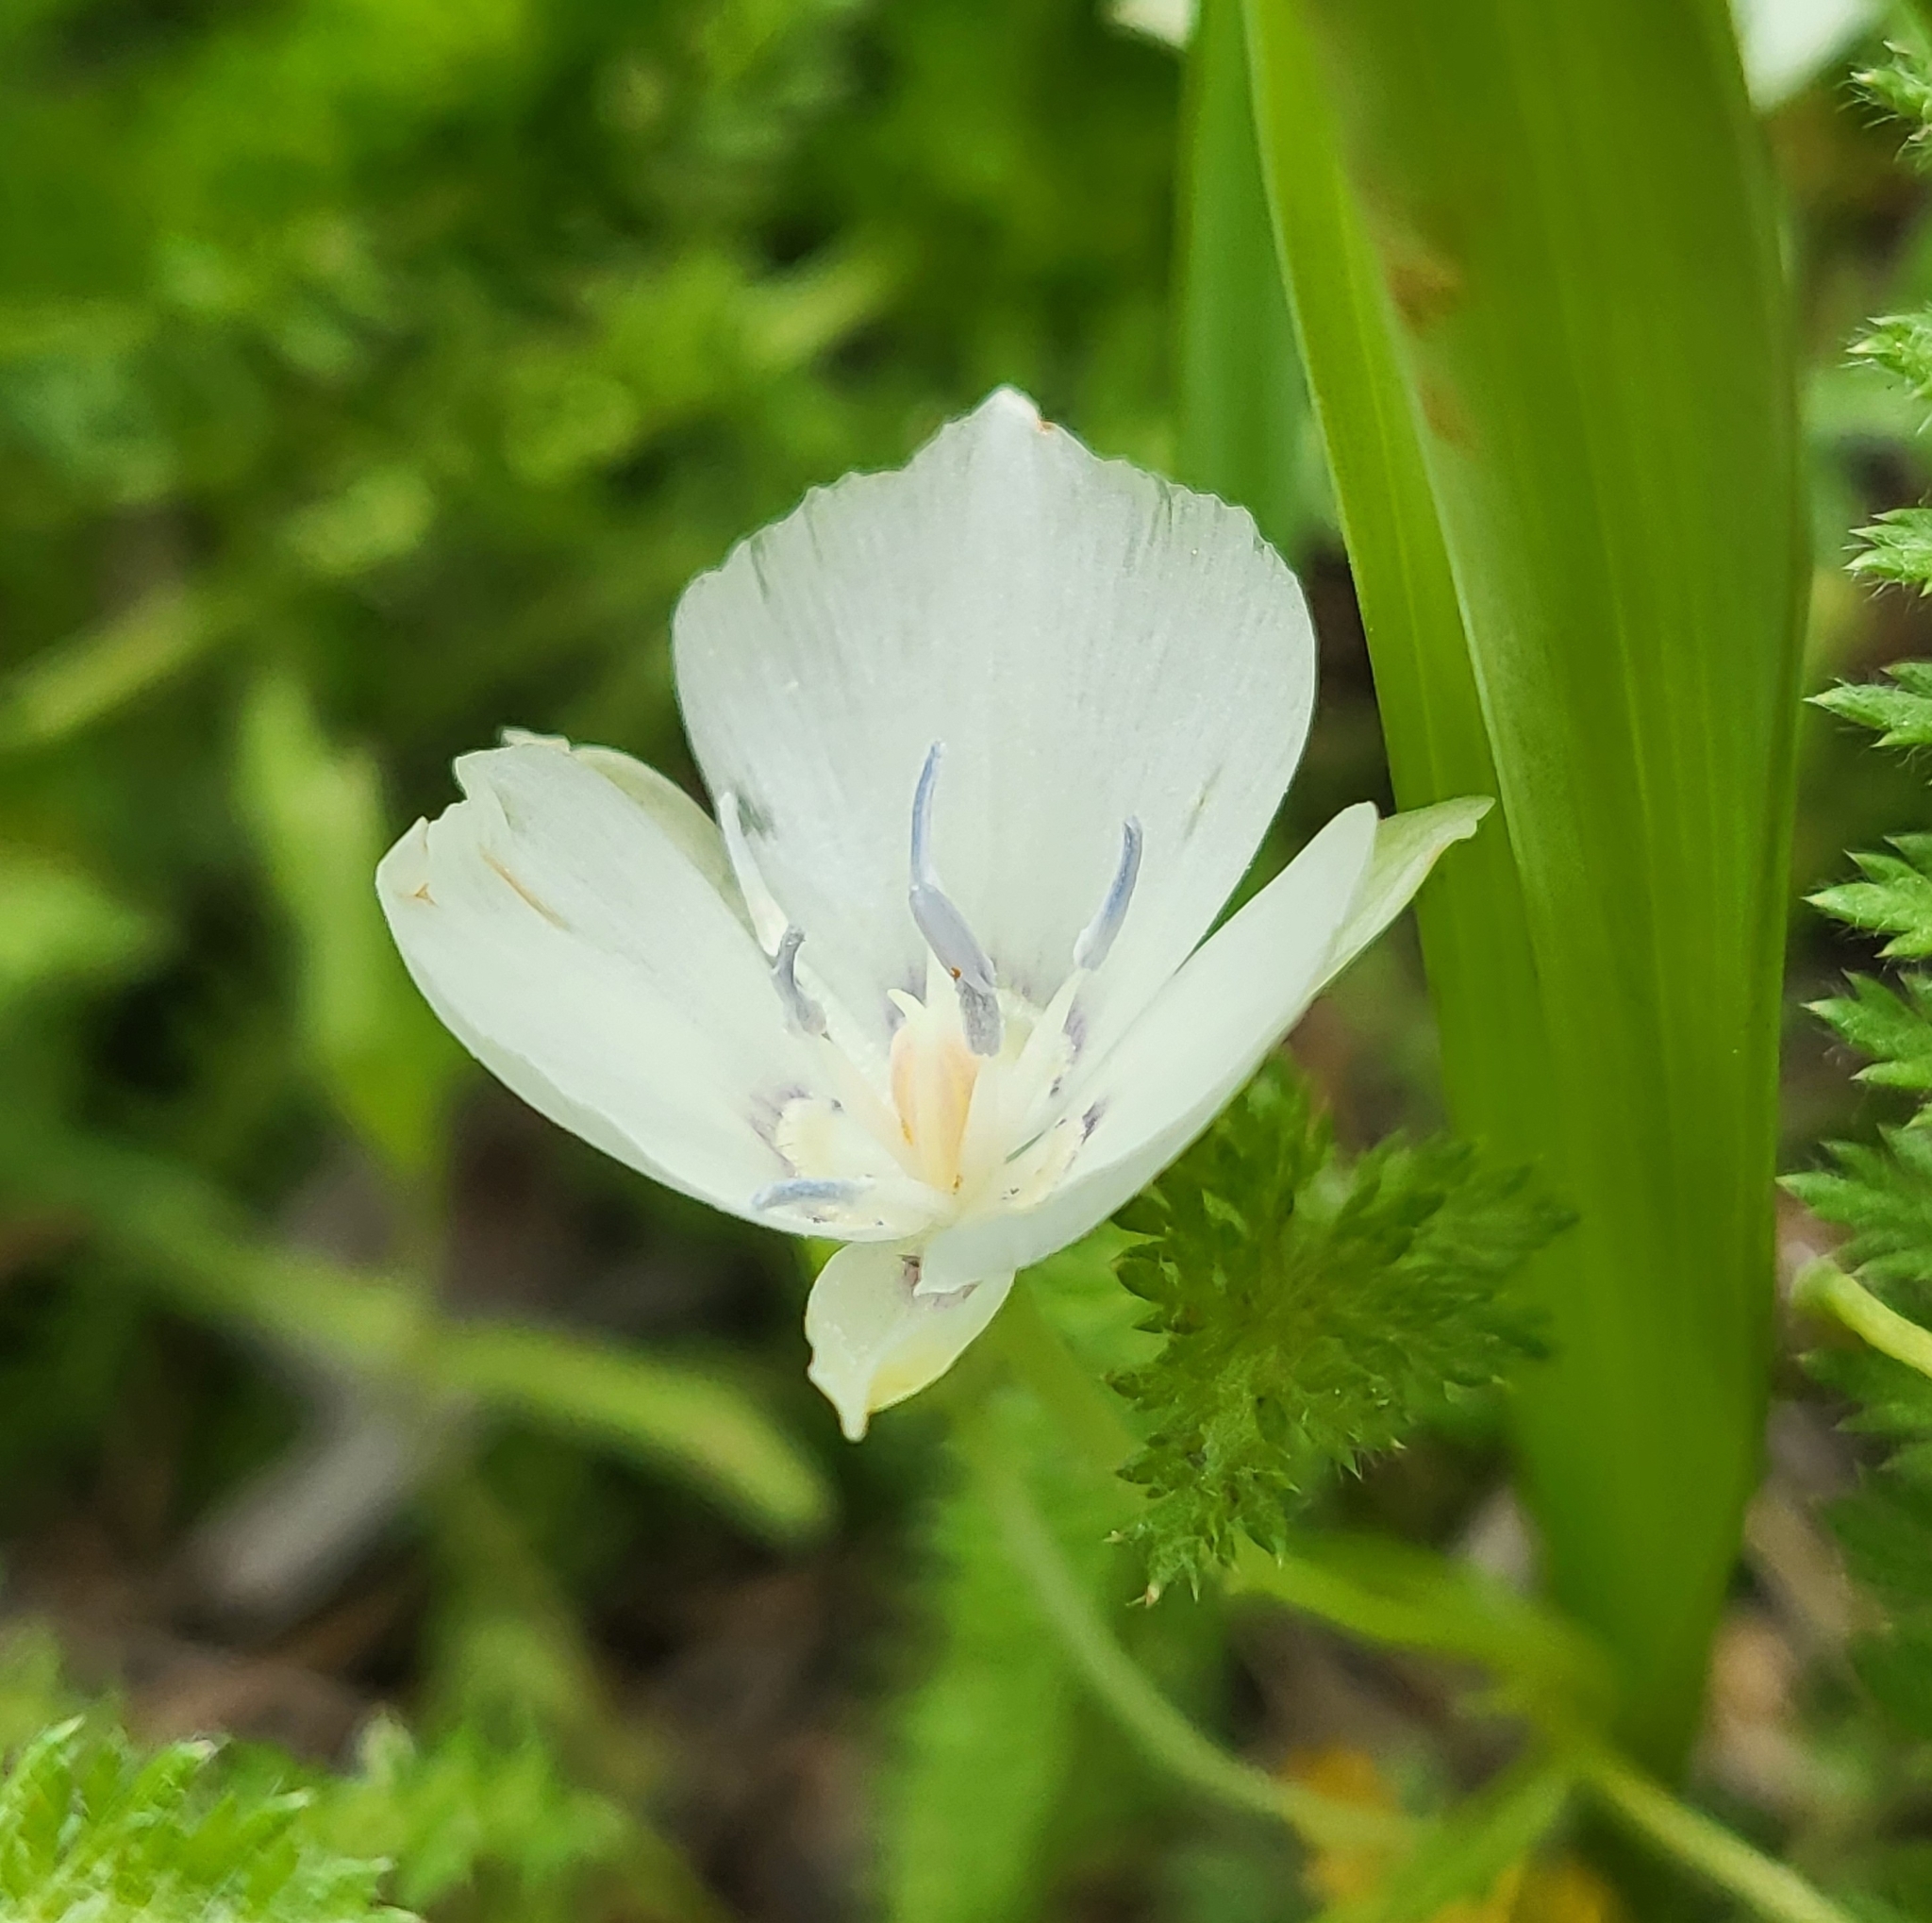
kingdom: Plantae
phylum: Tracheophyta
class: Liliopsida
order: Liliales
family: Liliaceae
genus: Calochortus
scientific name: Calochortus minimus
